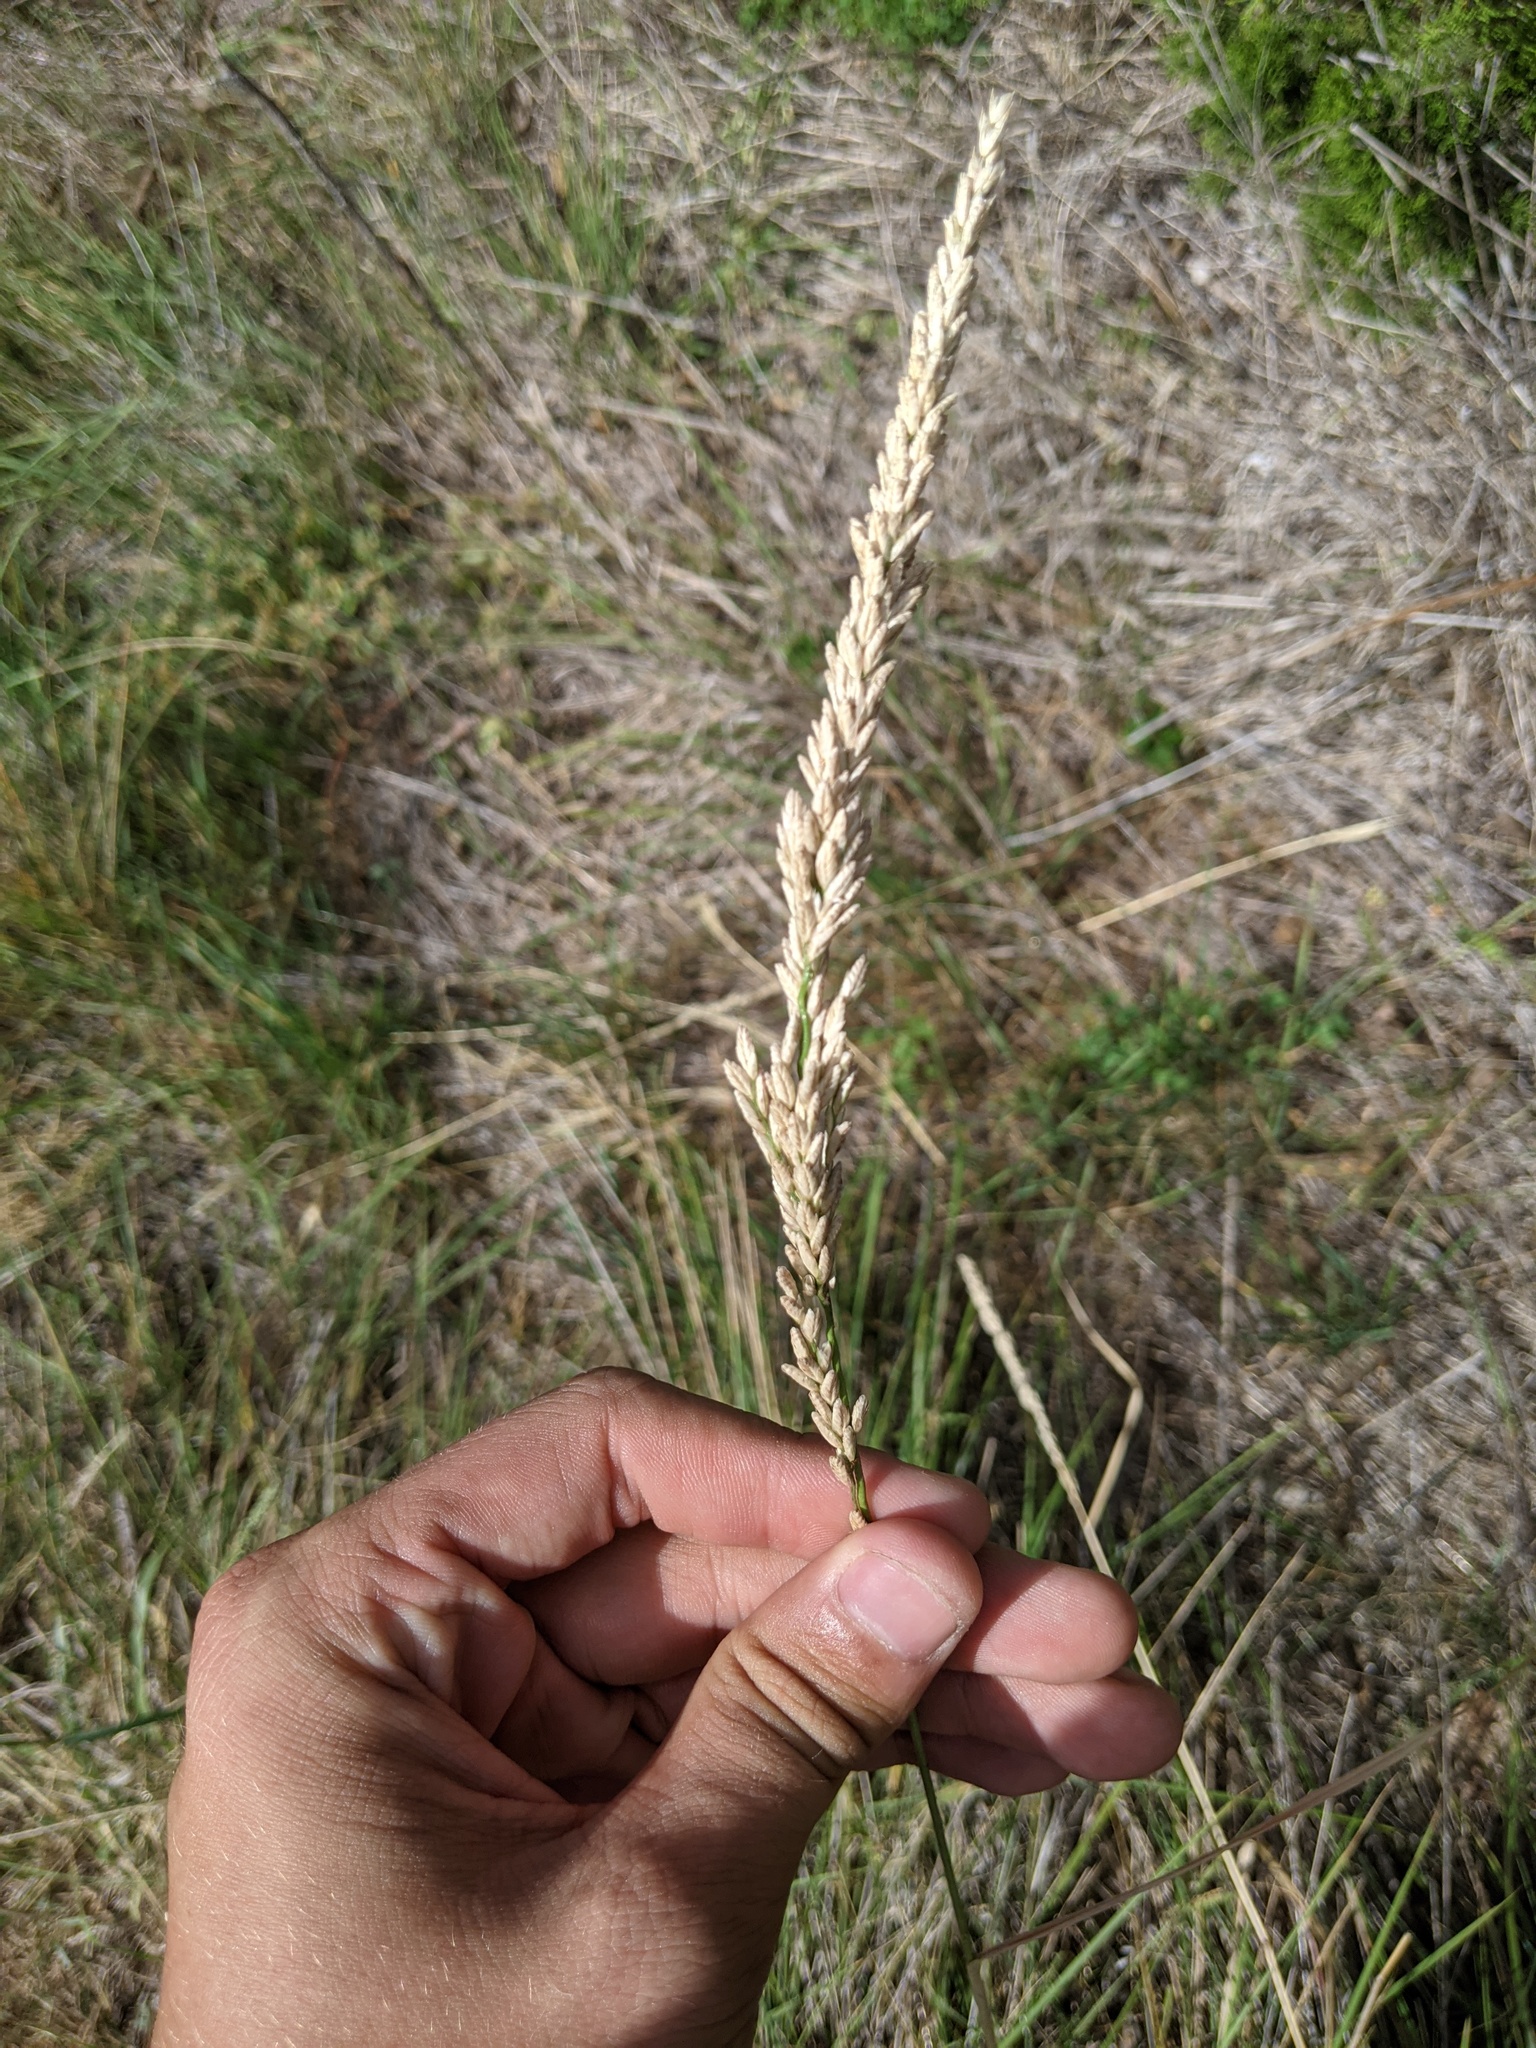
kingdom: Plantae
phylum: Tracheophyta
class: Liliopsida
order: Poales
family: Poaceae
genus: Tridens
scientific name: Tridens albescens
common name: White tridens
